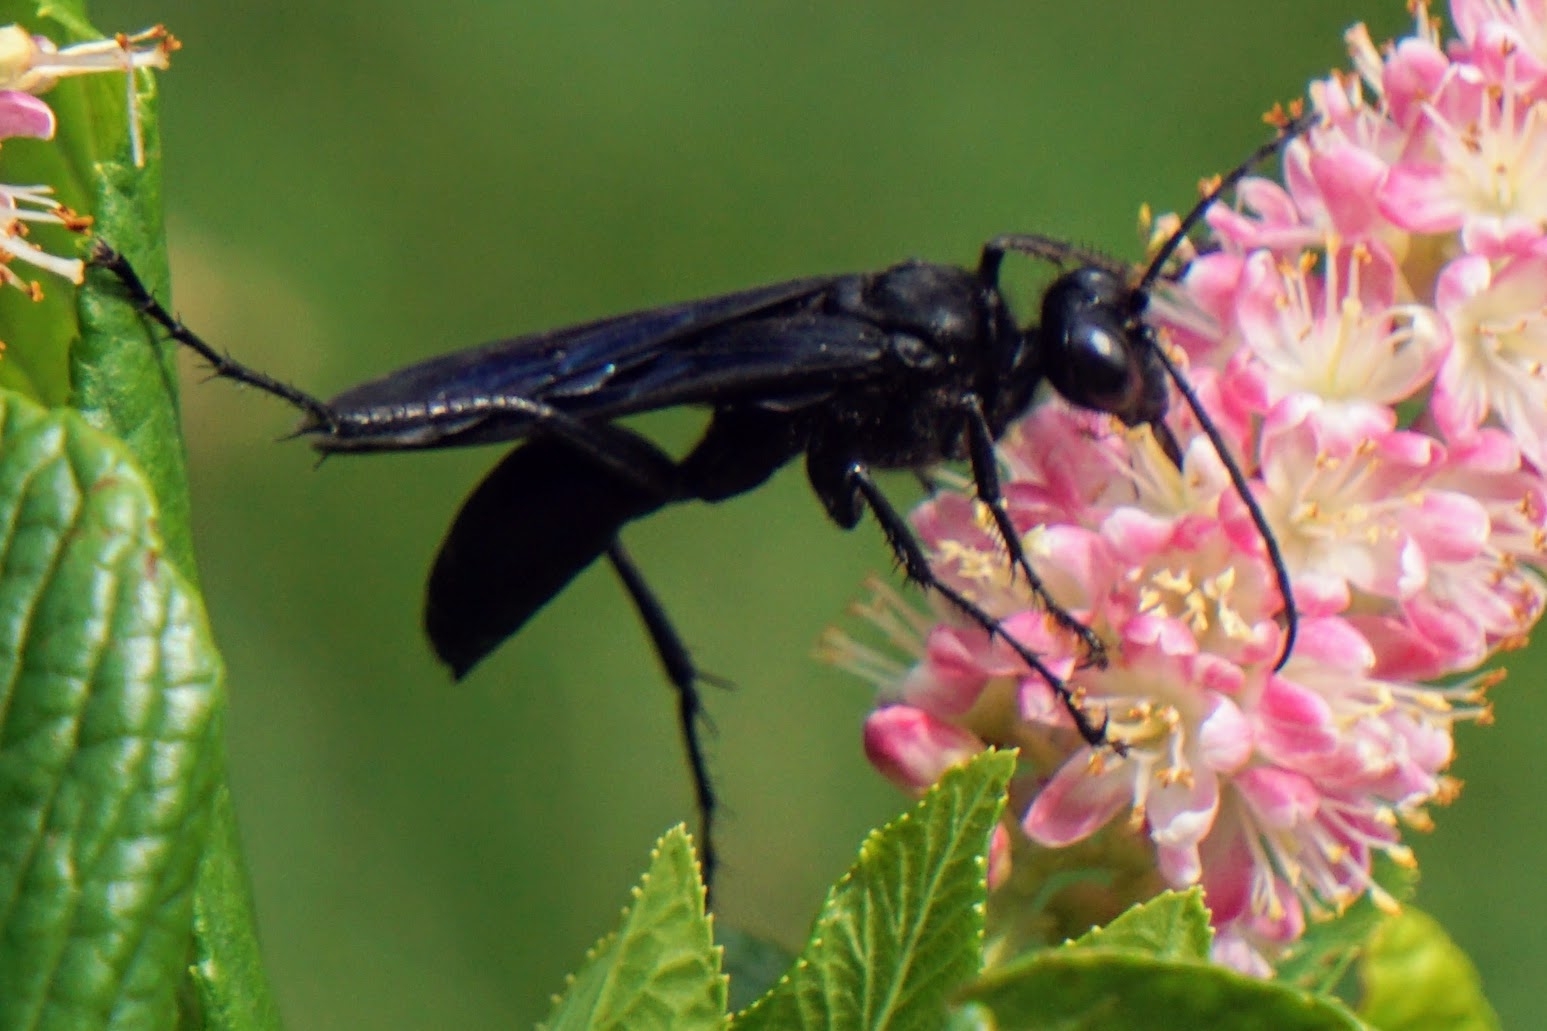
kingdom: Animalia
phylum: Arthropoda
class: Insecta
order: Hymenoptera
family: Sphecidae
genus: Sphex
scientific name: Sphex pensylvanicus
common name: Great black digger wasp
